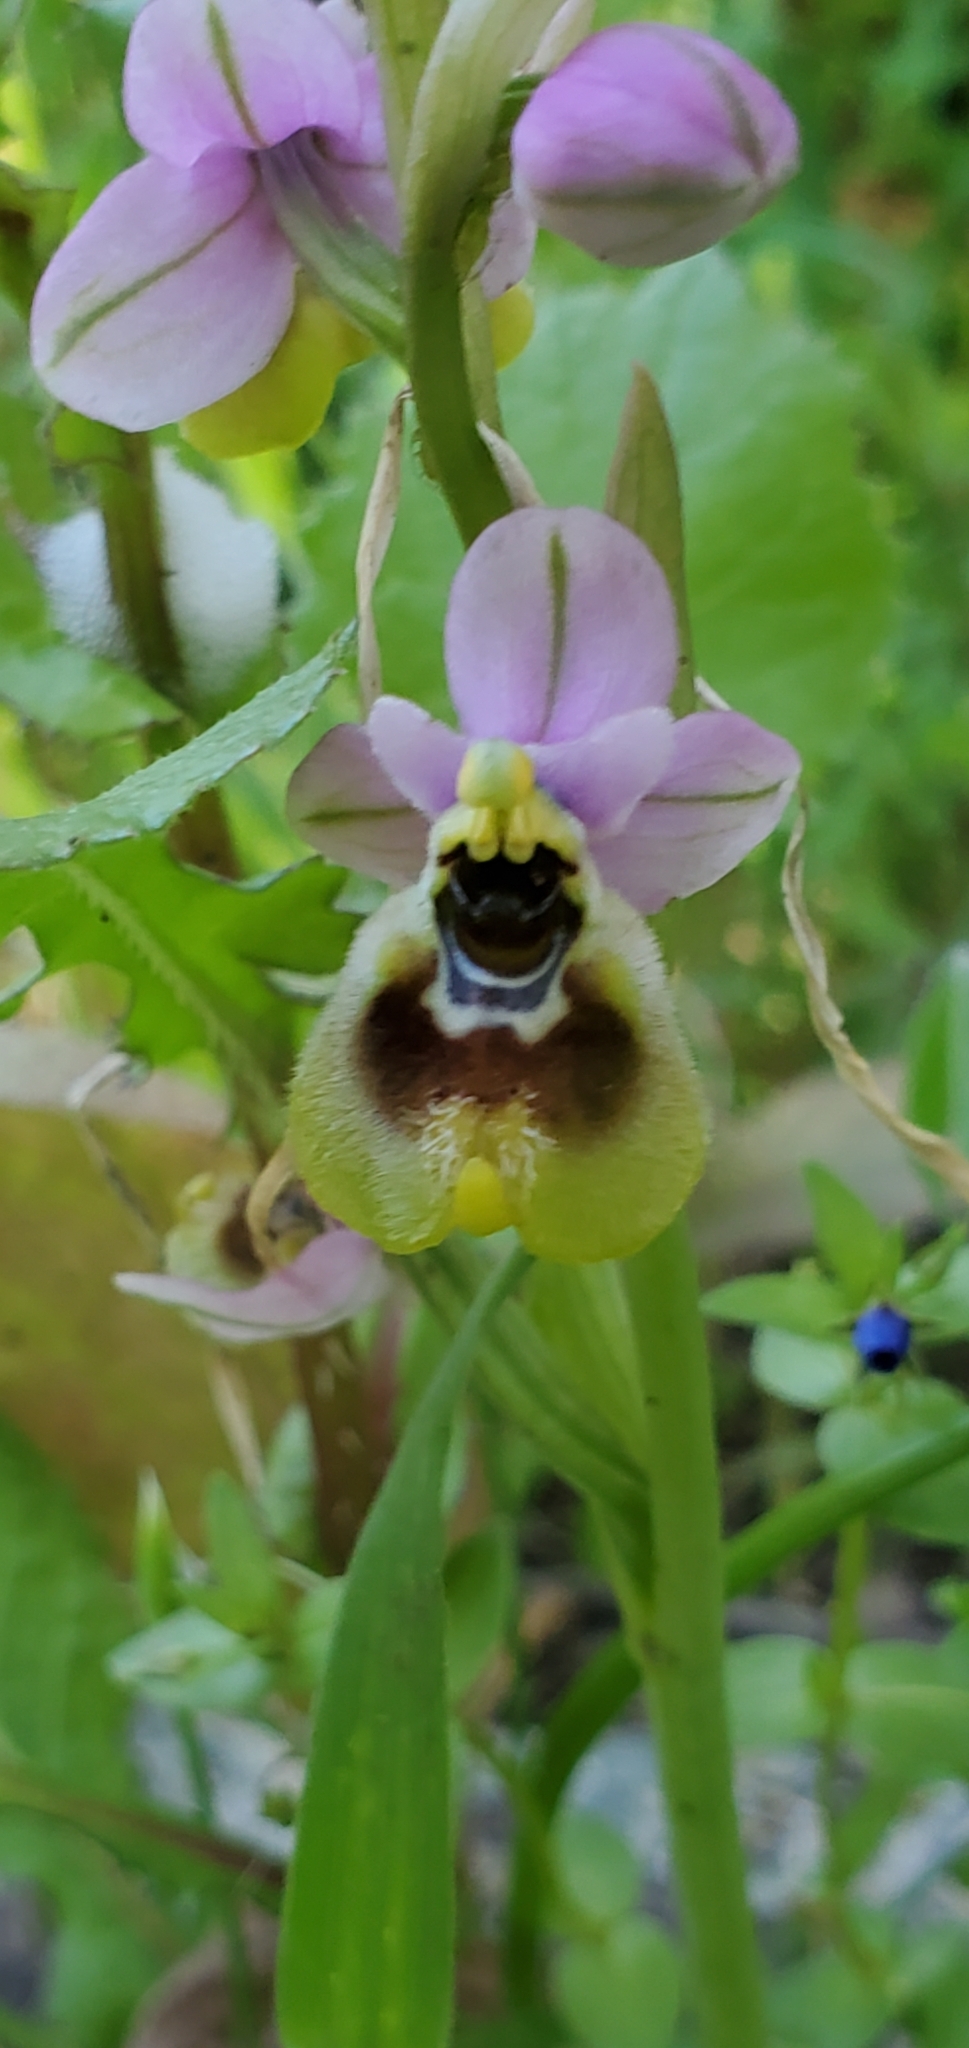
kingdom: Plantae
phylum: Tracheophyta
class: Liliopsida
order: Asparagales
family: Orchidaceae
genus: Ophrys
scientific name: Ophrys tenthredinifera
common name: Sawfly orchid
